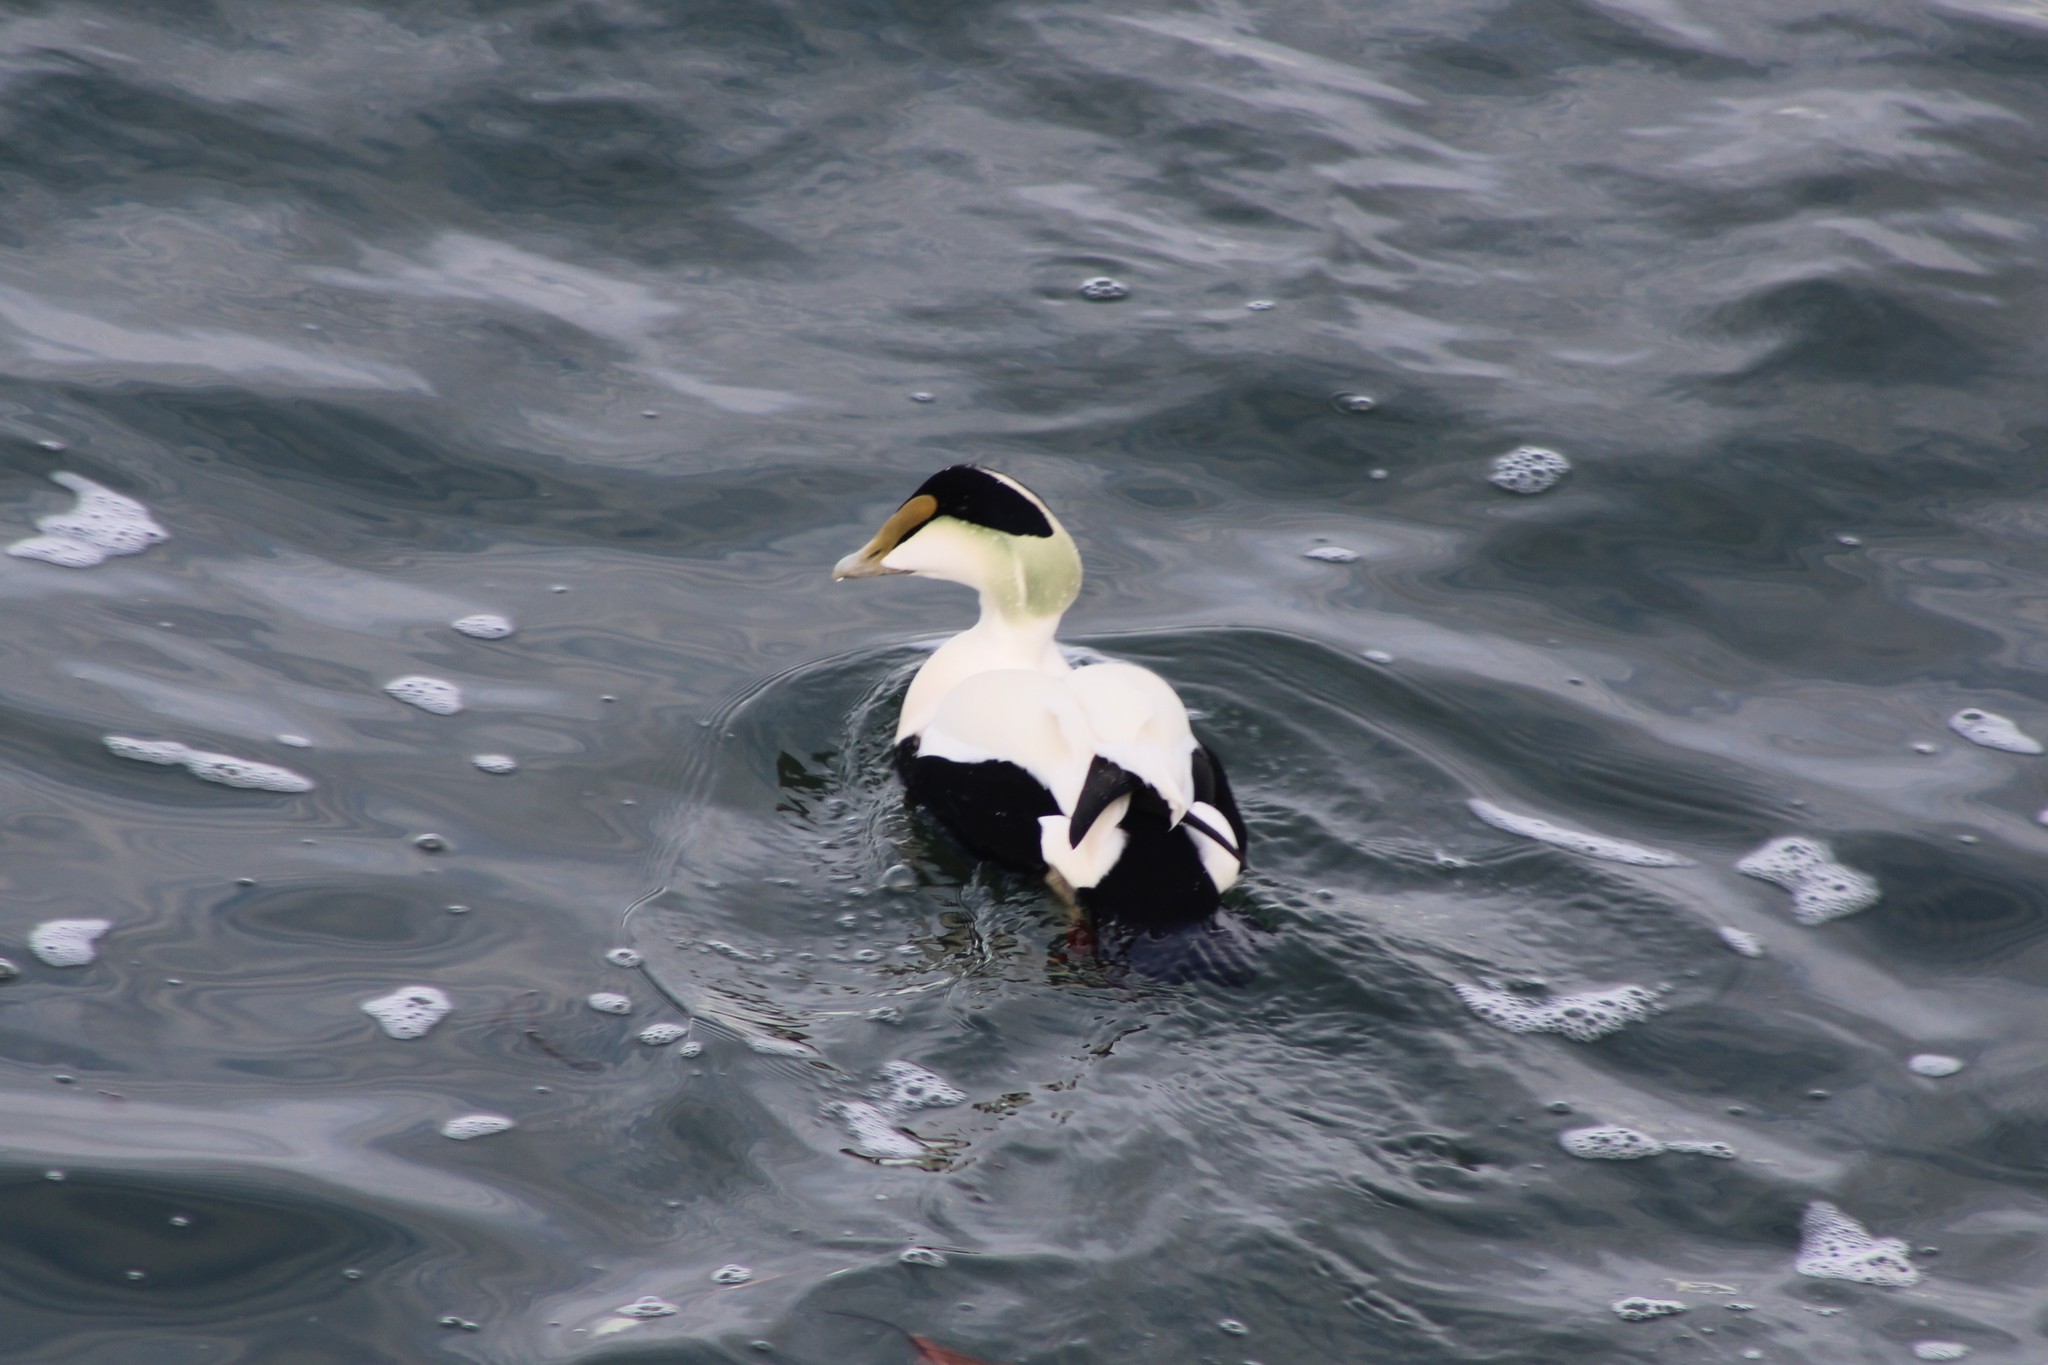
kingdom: Animalia
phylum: Chordata
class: Aves
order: Anseriformes
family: Anatidae
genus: Somateria
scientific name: Somateria mollissima
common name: Common eider
